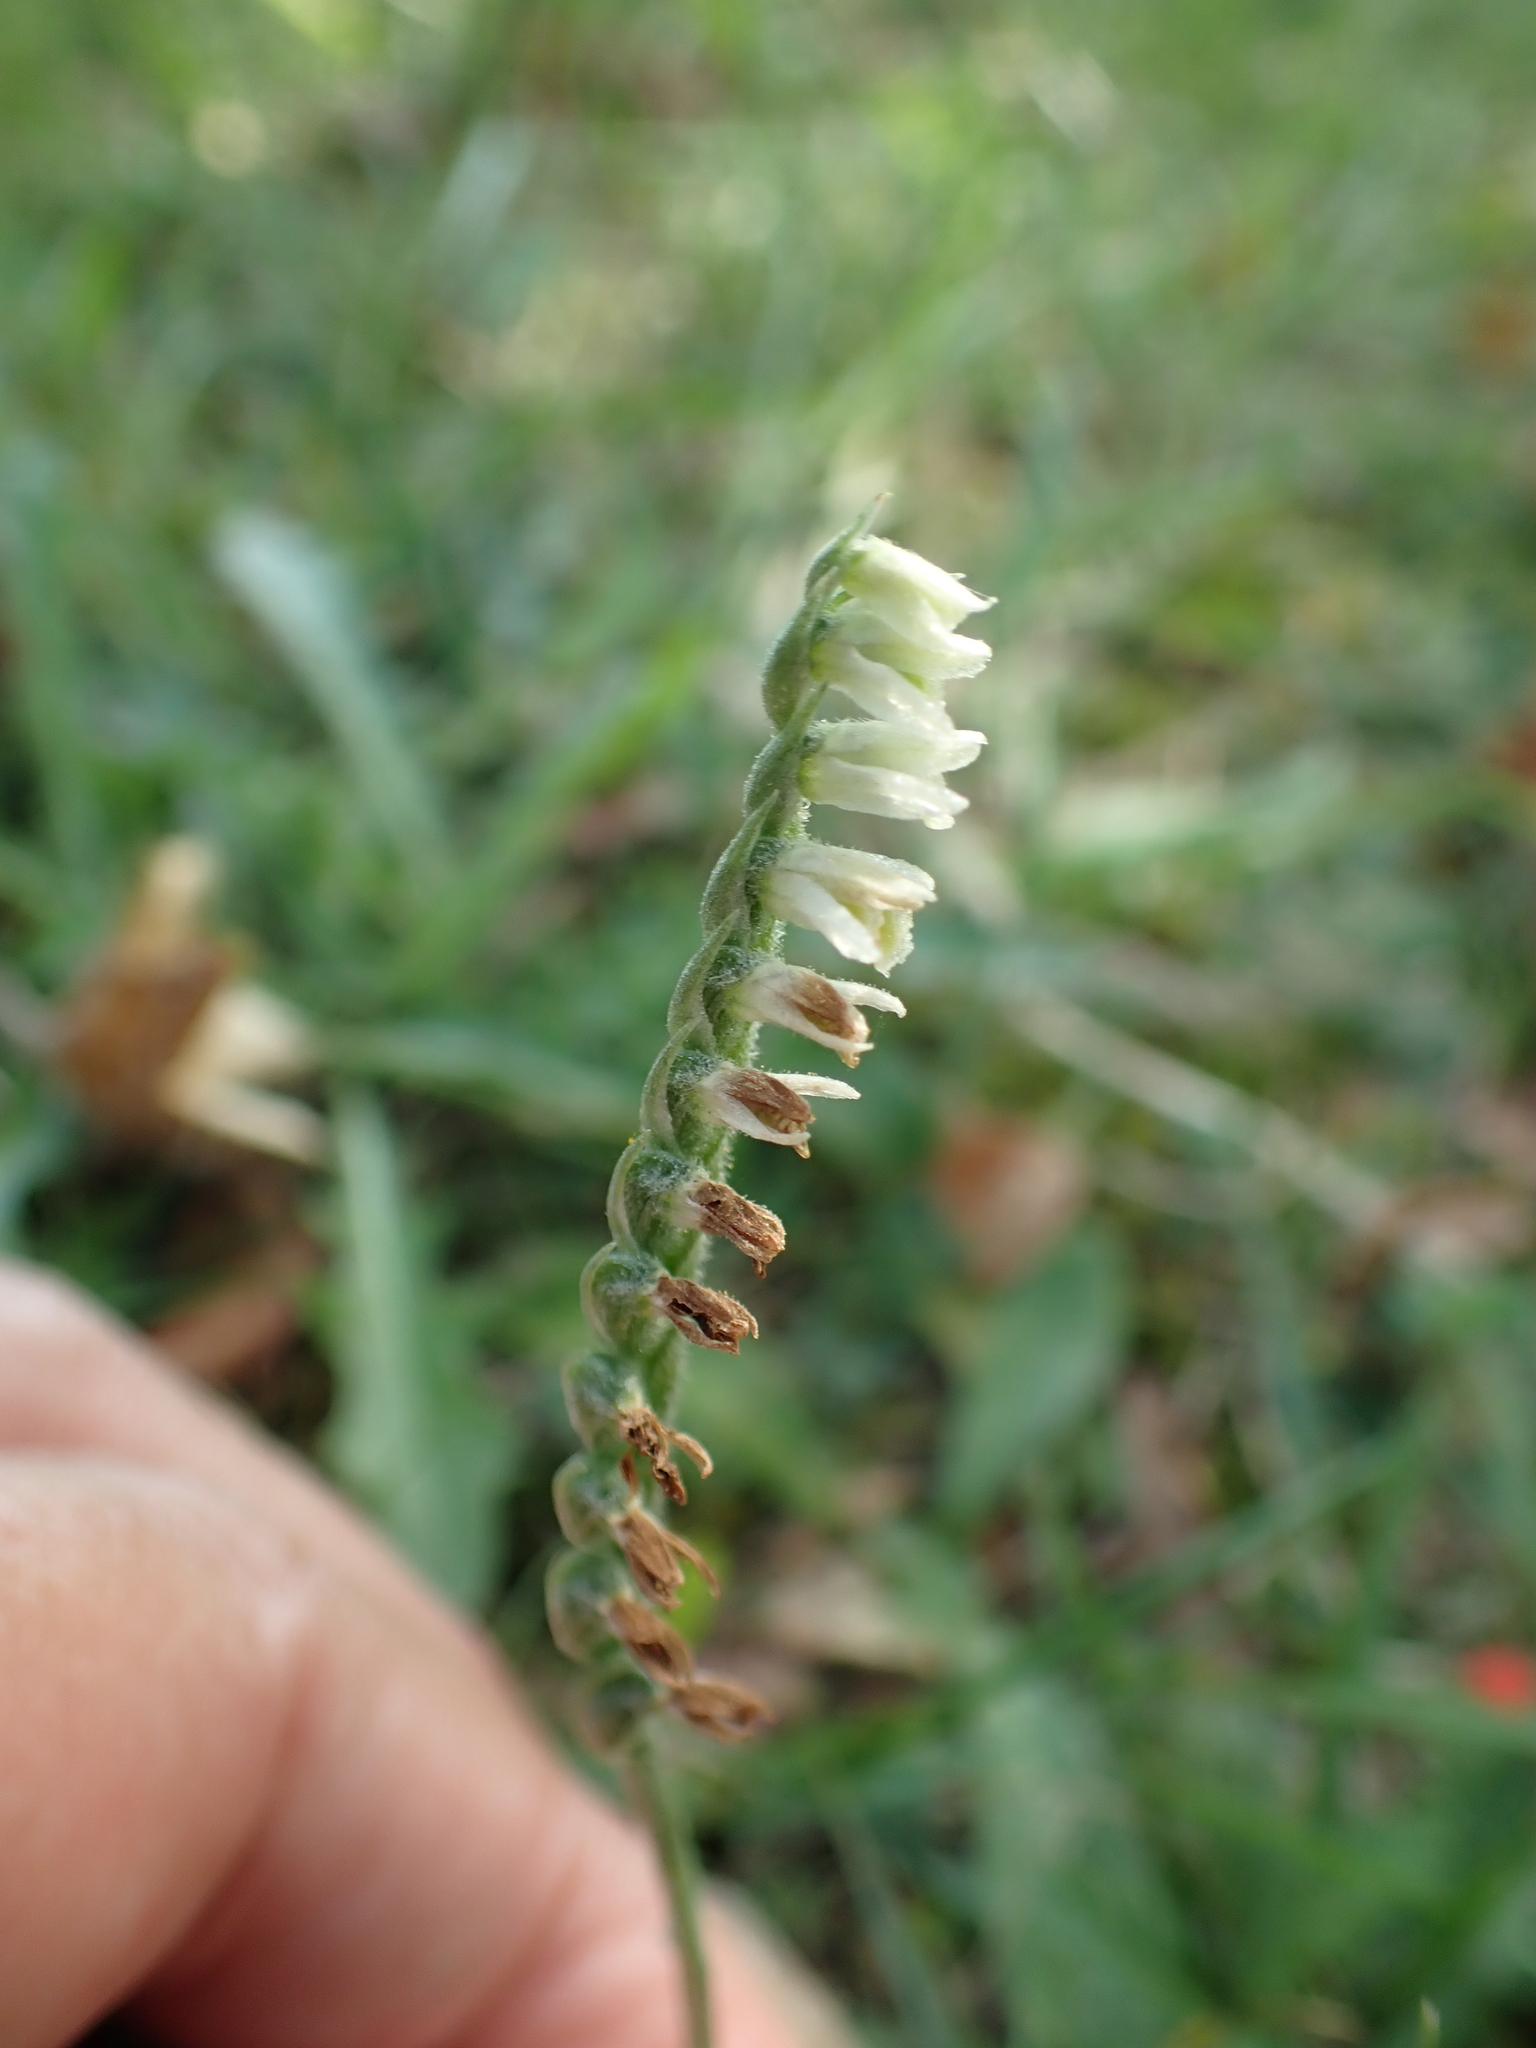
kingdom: Plantae
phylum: Tracheophyta
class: Liliopsida
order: Asparagales
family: Orchidaceae
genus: Spiranthes
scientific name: Spiranthes spiralis
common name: Autumn lady's-tresses
